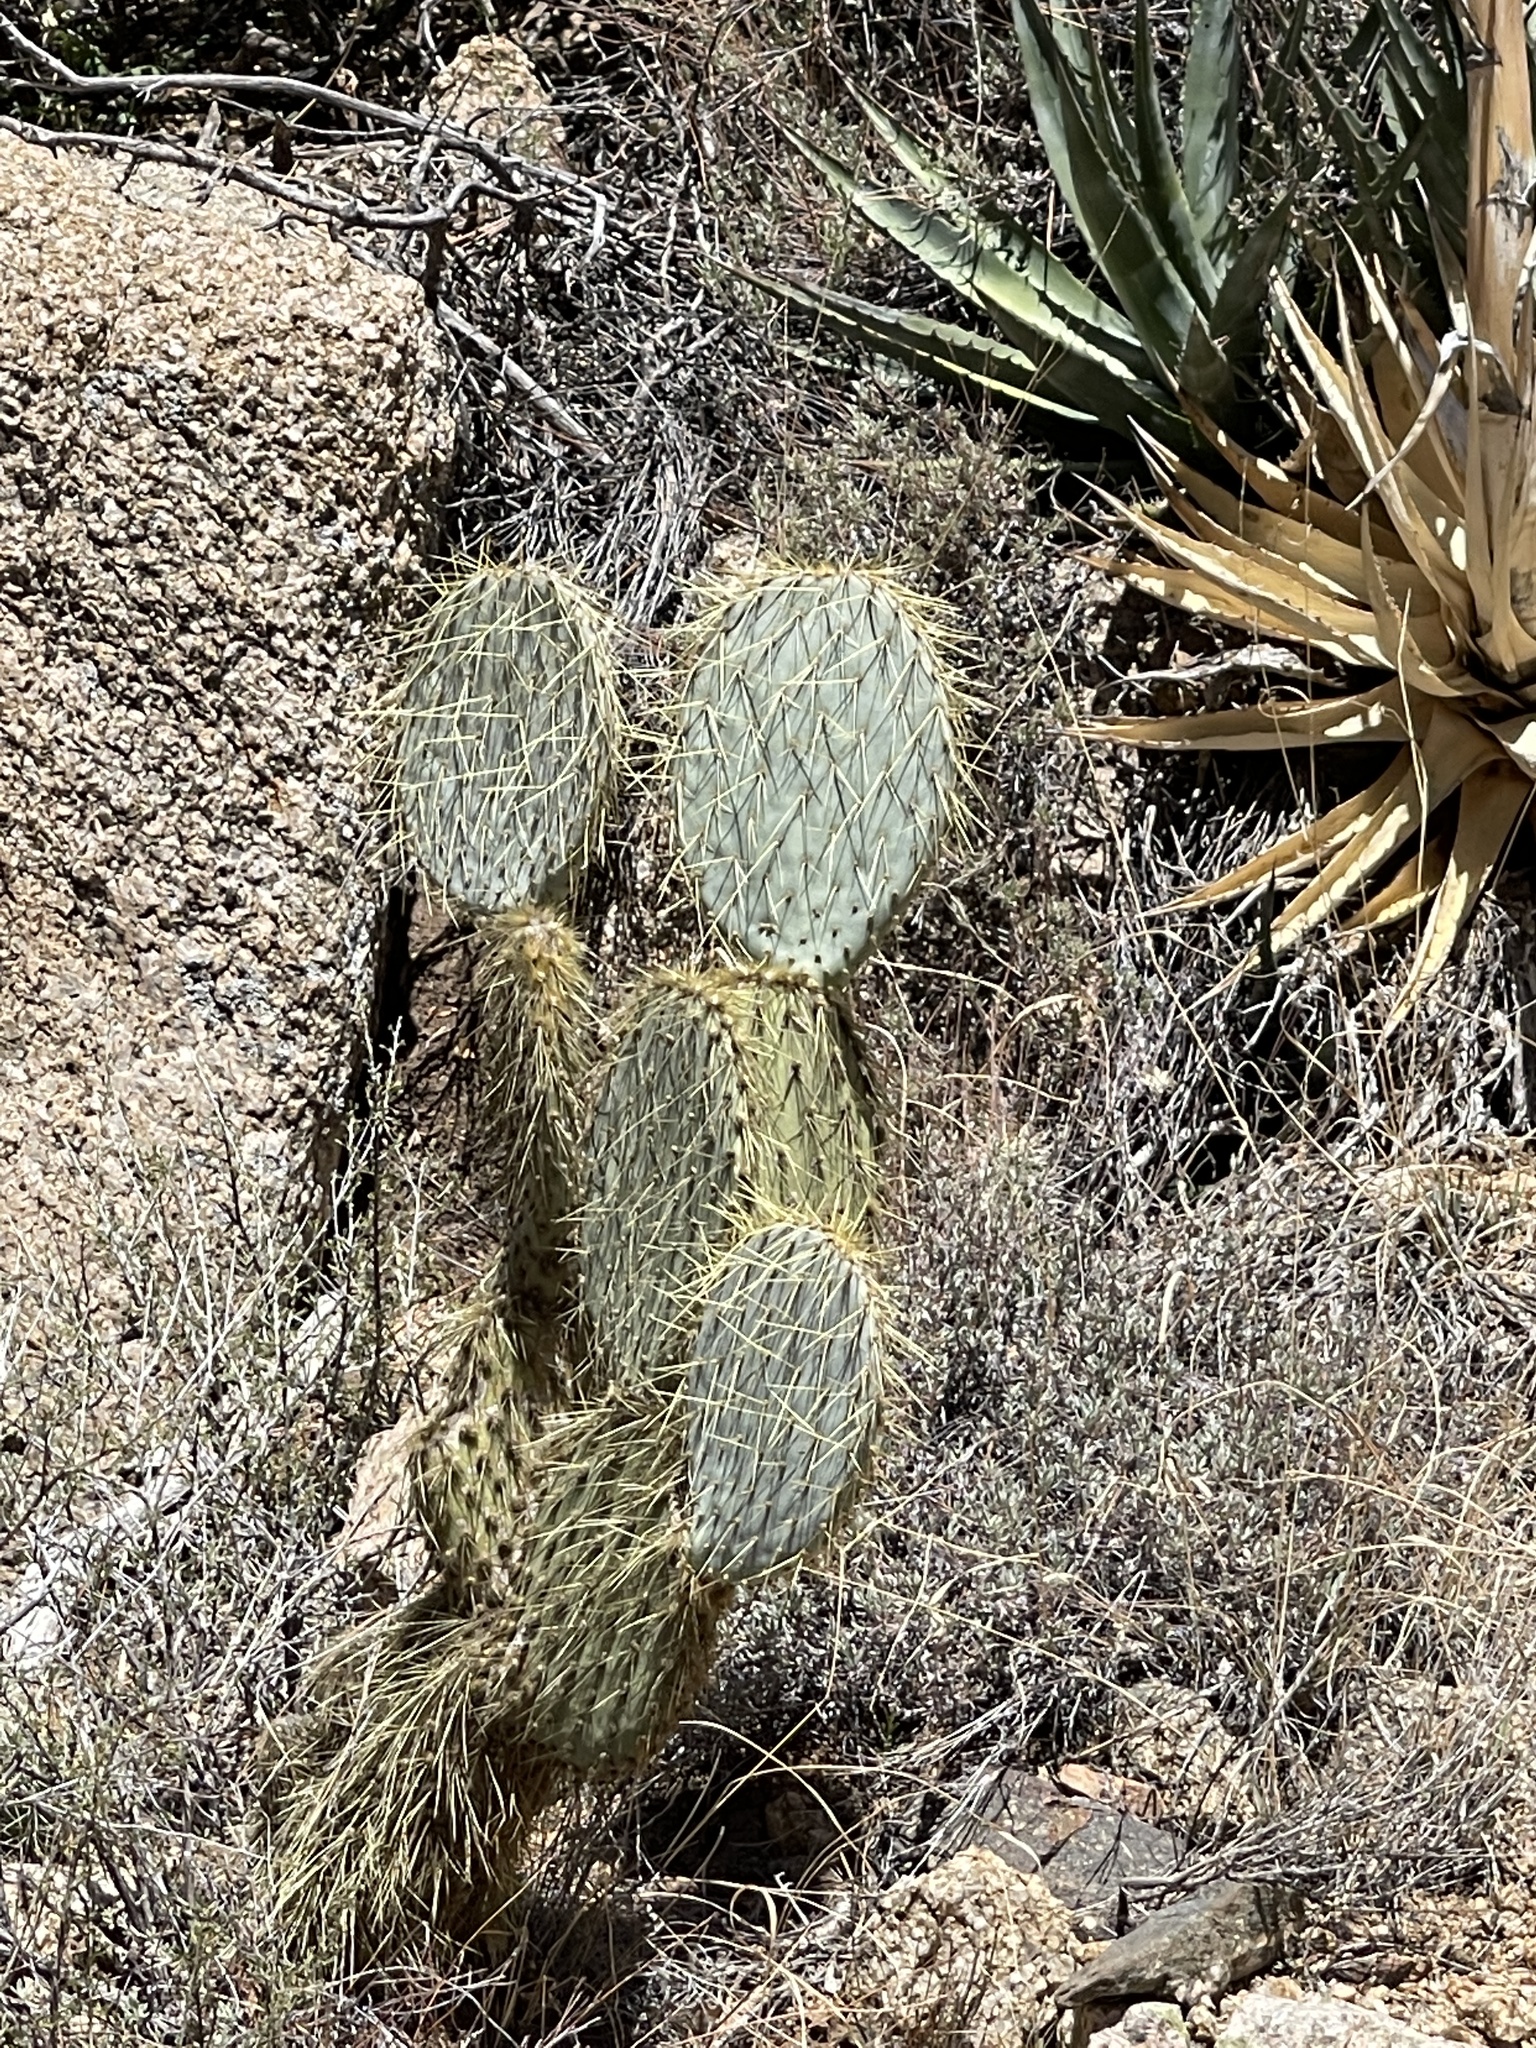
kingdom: Plantae
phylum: Tracheophyta
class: Magnoliopsida
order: Caryophyllales
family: Cactaceae
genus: Opuntia
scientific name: Opuntia chlorotica
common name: Dollar-joint prickly-pear
